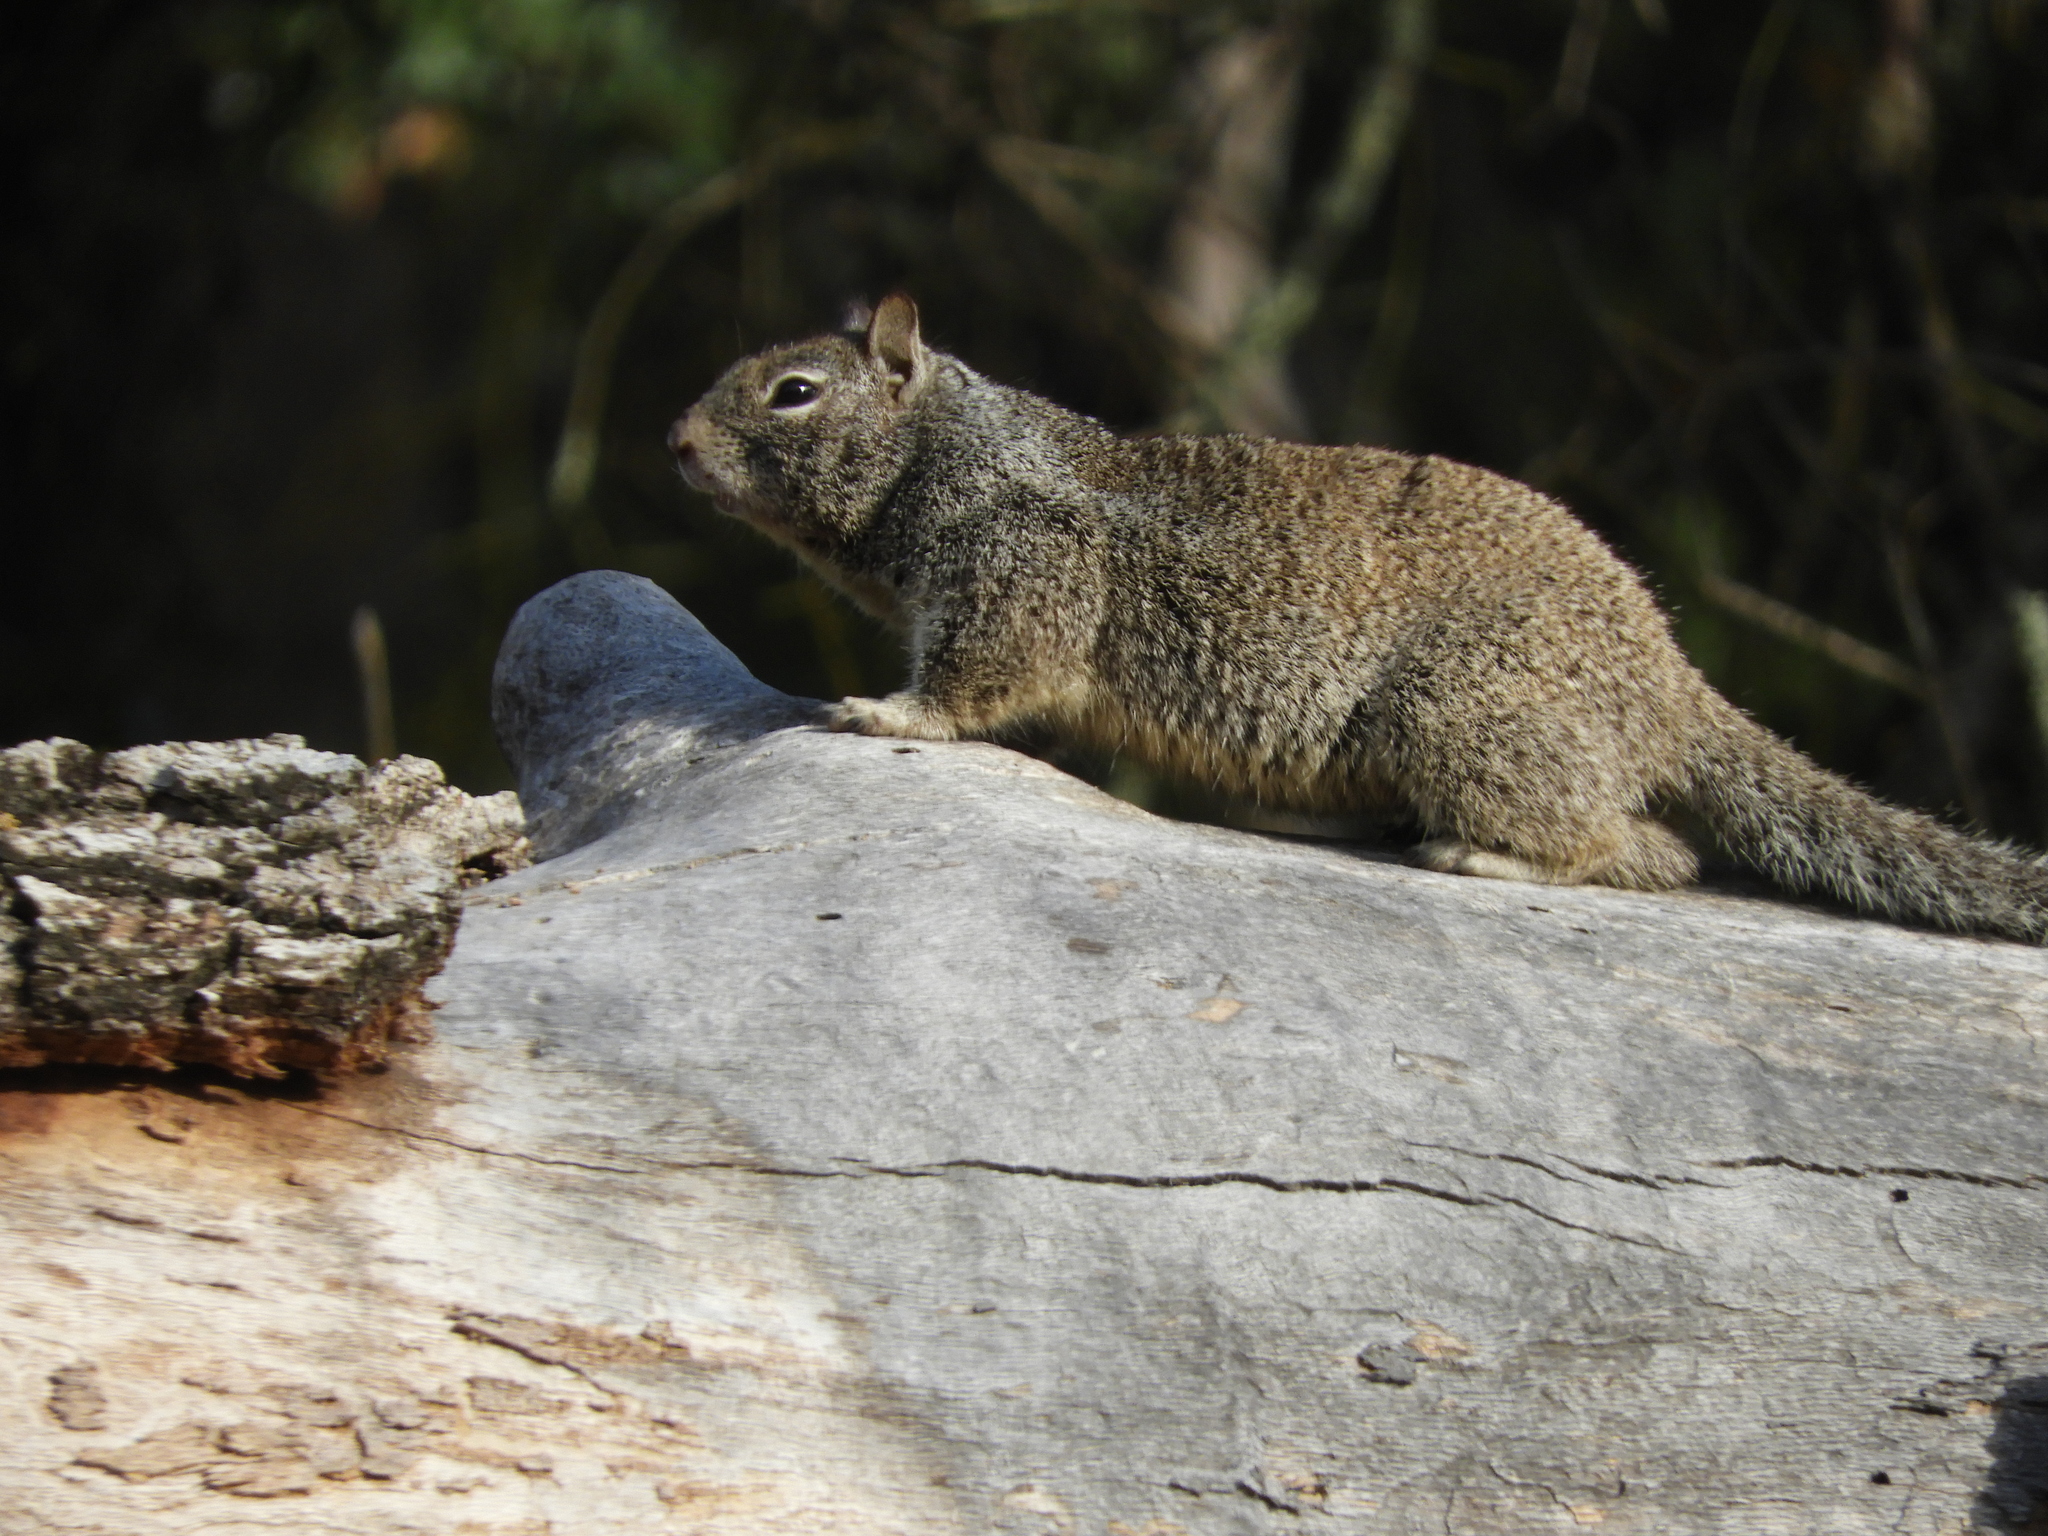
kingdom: Animalia
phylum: Chordata
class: Mammalia
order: Rodentia
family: Sciuridae
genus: Otospermophilus
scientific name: Otospermophilus beecheyi
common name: California ground squirrel
